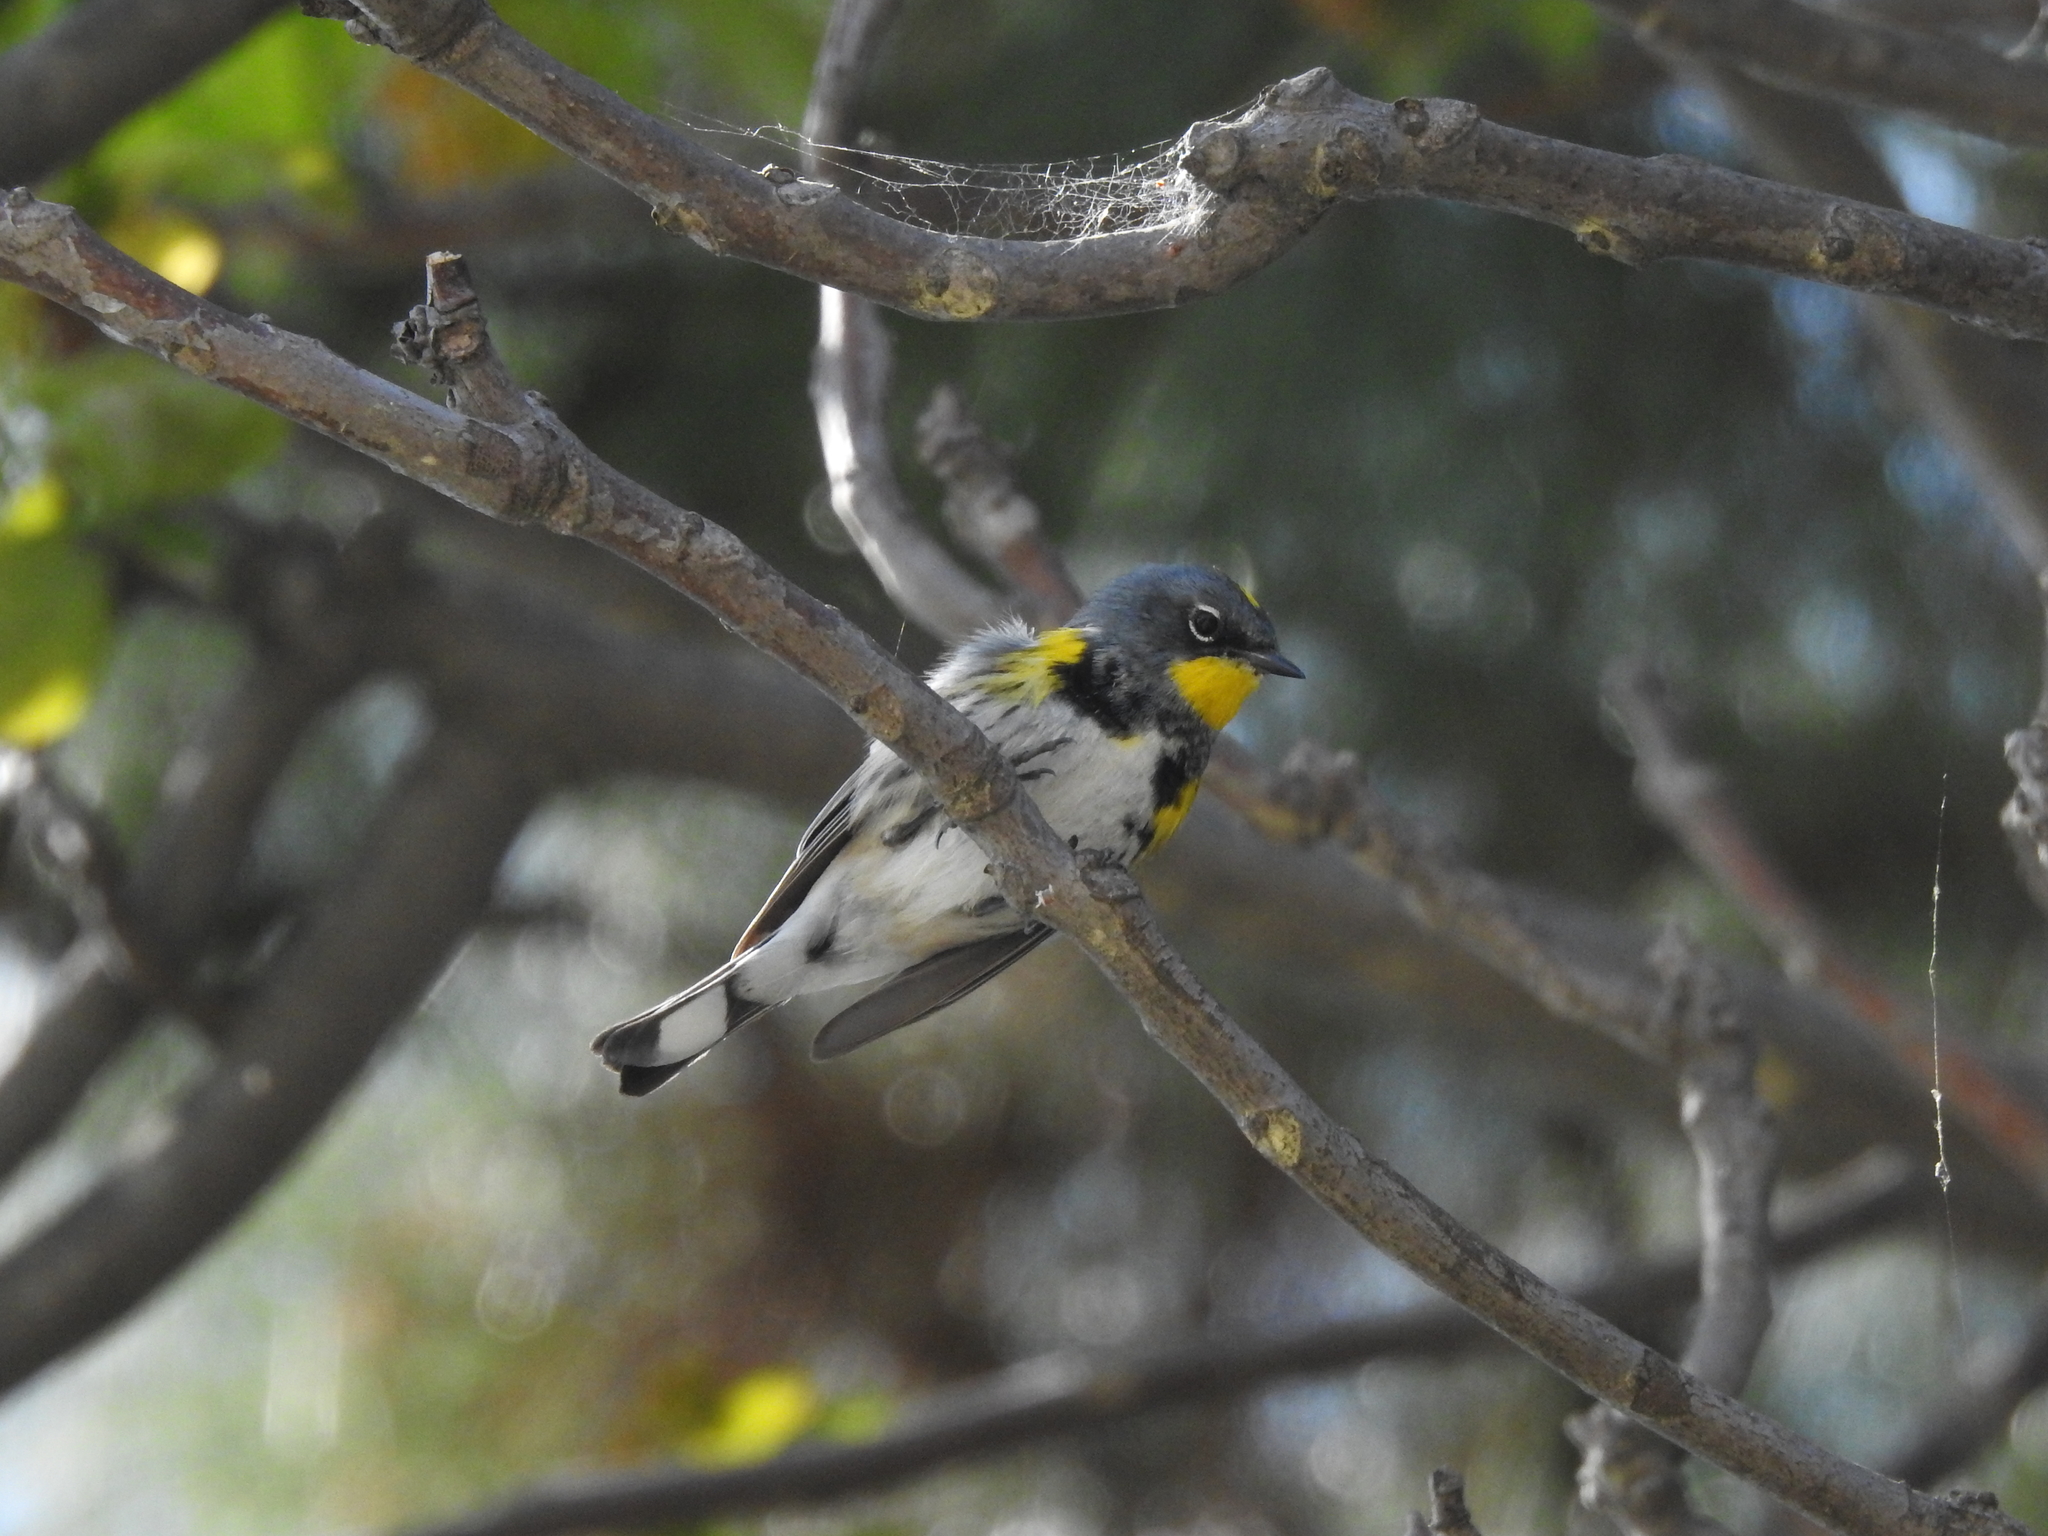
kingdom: Animalia
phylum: Chordata
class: Aves
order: Passeriformes
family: Parulidae
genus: Setophaga
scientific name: Setophaga auduboni
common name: Audubon's warbler
